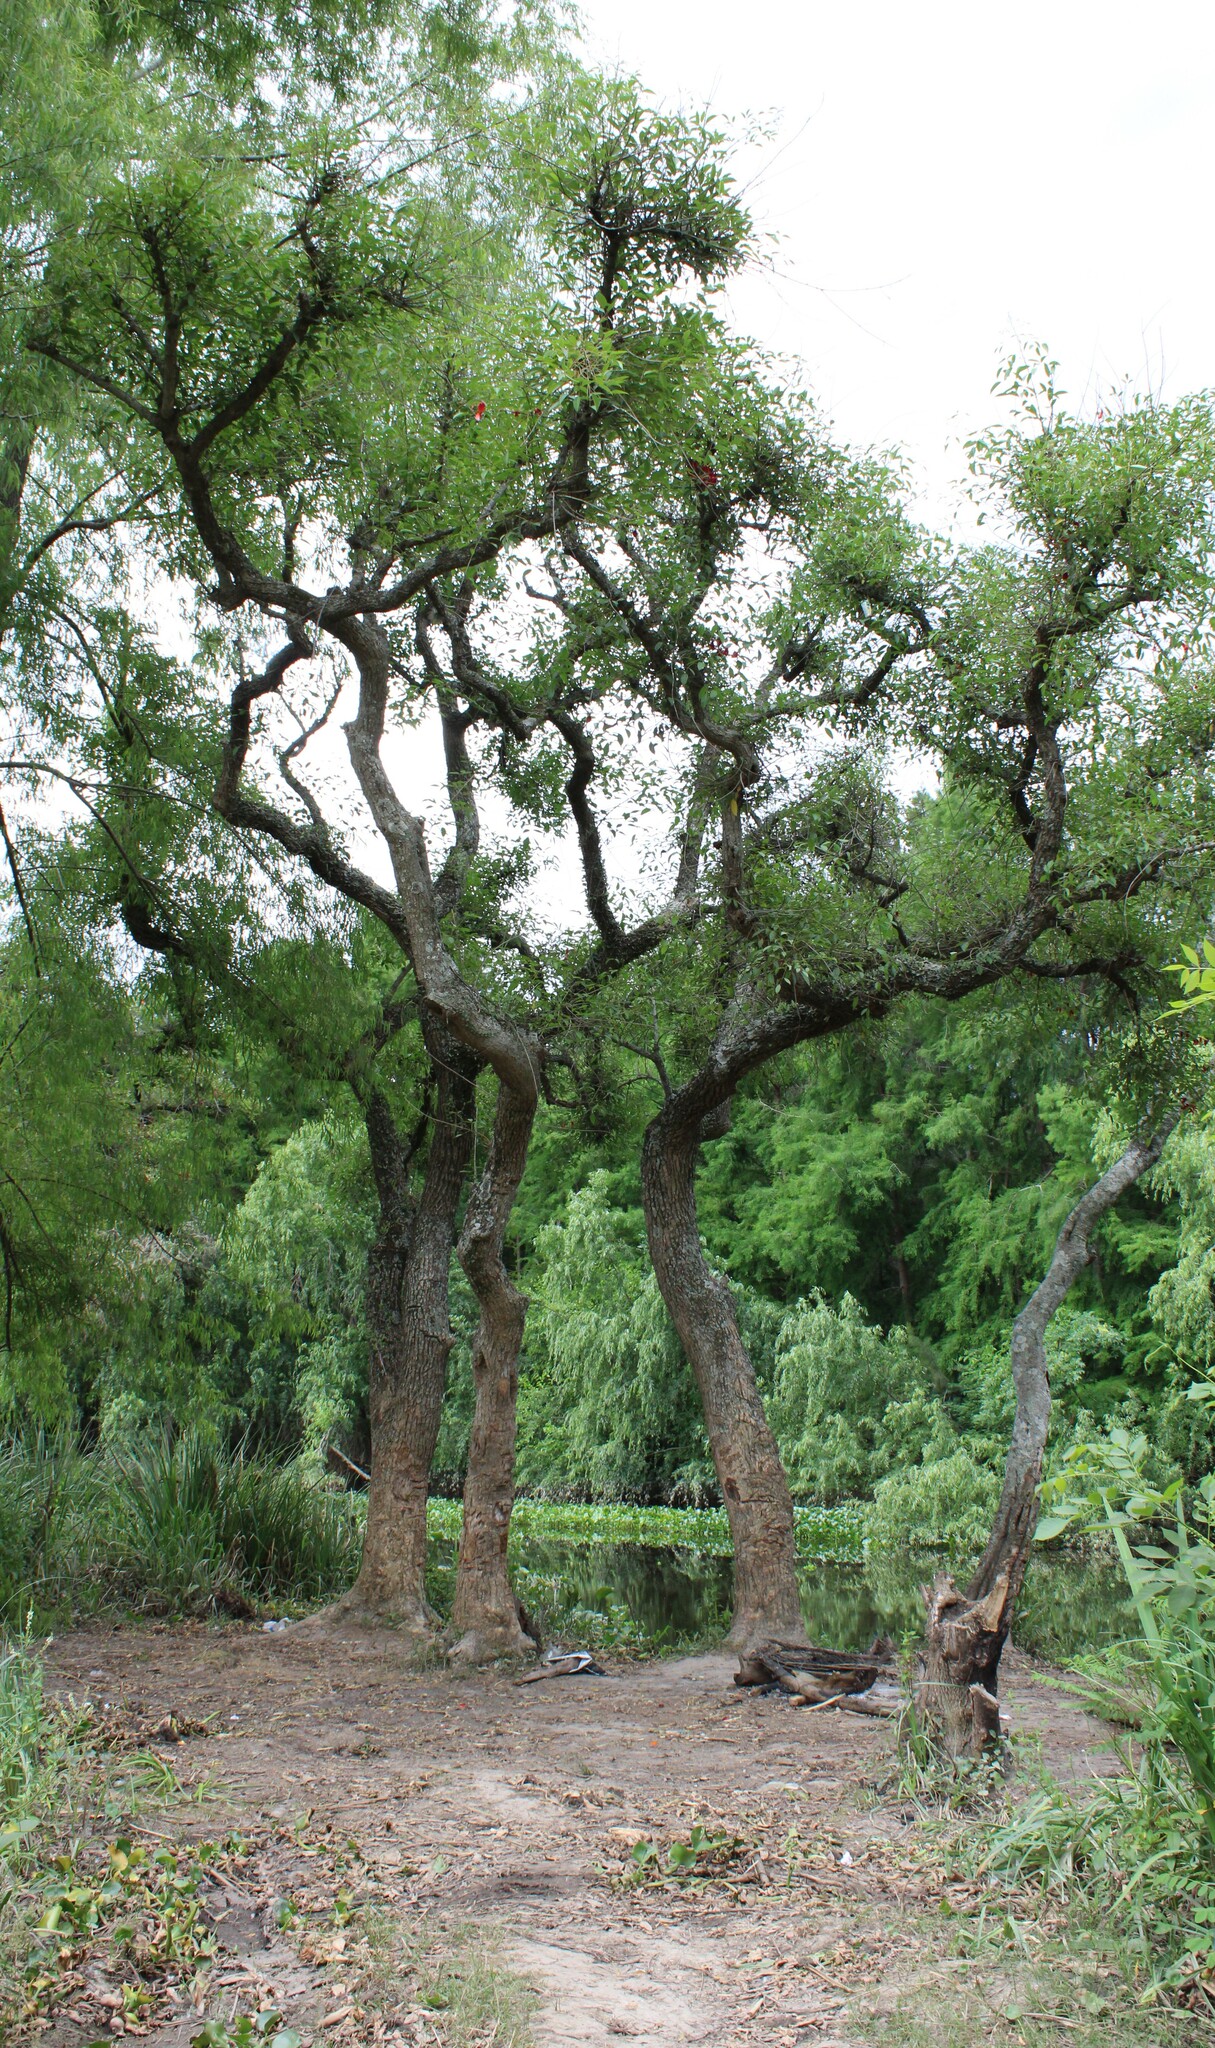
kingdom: Plantae
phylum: Tracheophyta
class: Magnoliopsida
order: Fabales
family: Fabaceae
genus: Erythrina
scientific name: Erythrina crista-galli
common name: Cockspur coral tree
